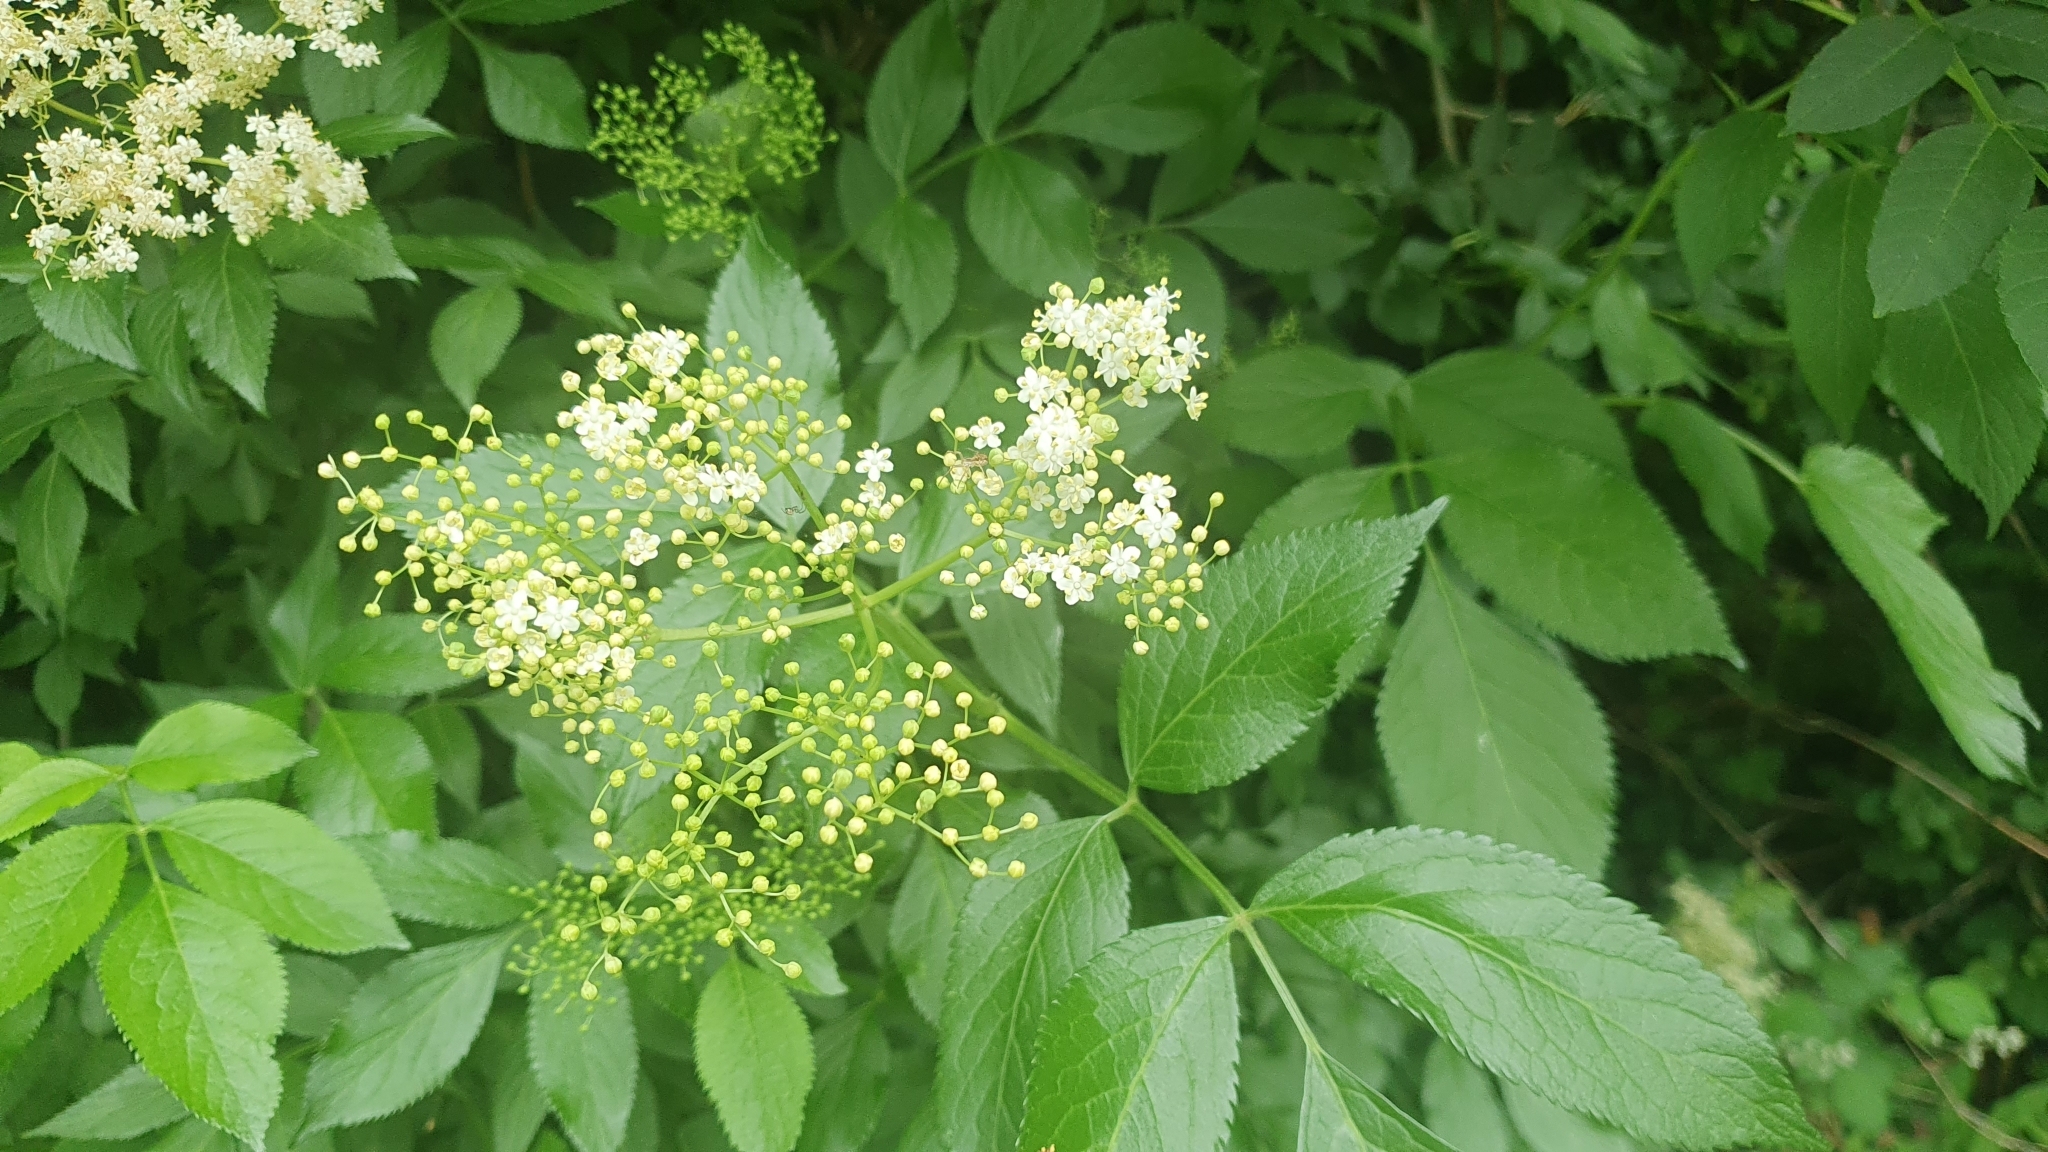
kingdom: Plantae
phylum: Tracheophyta
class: Magnoliopsida
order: Dipsacales
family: Viburnaceae
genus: Sambucus
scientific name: Sambucus nigra
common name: Elder
